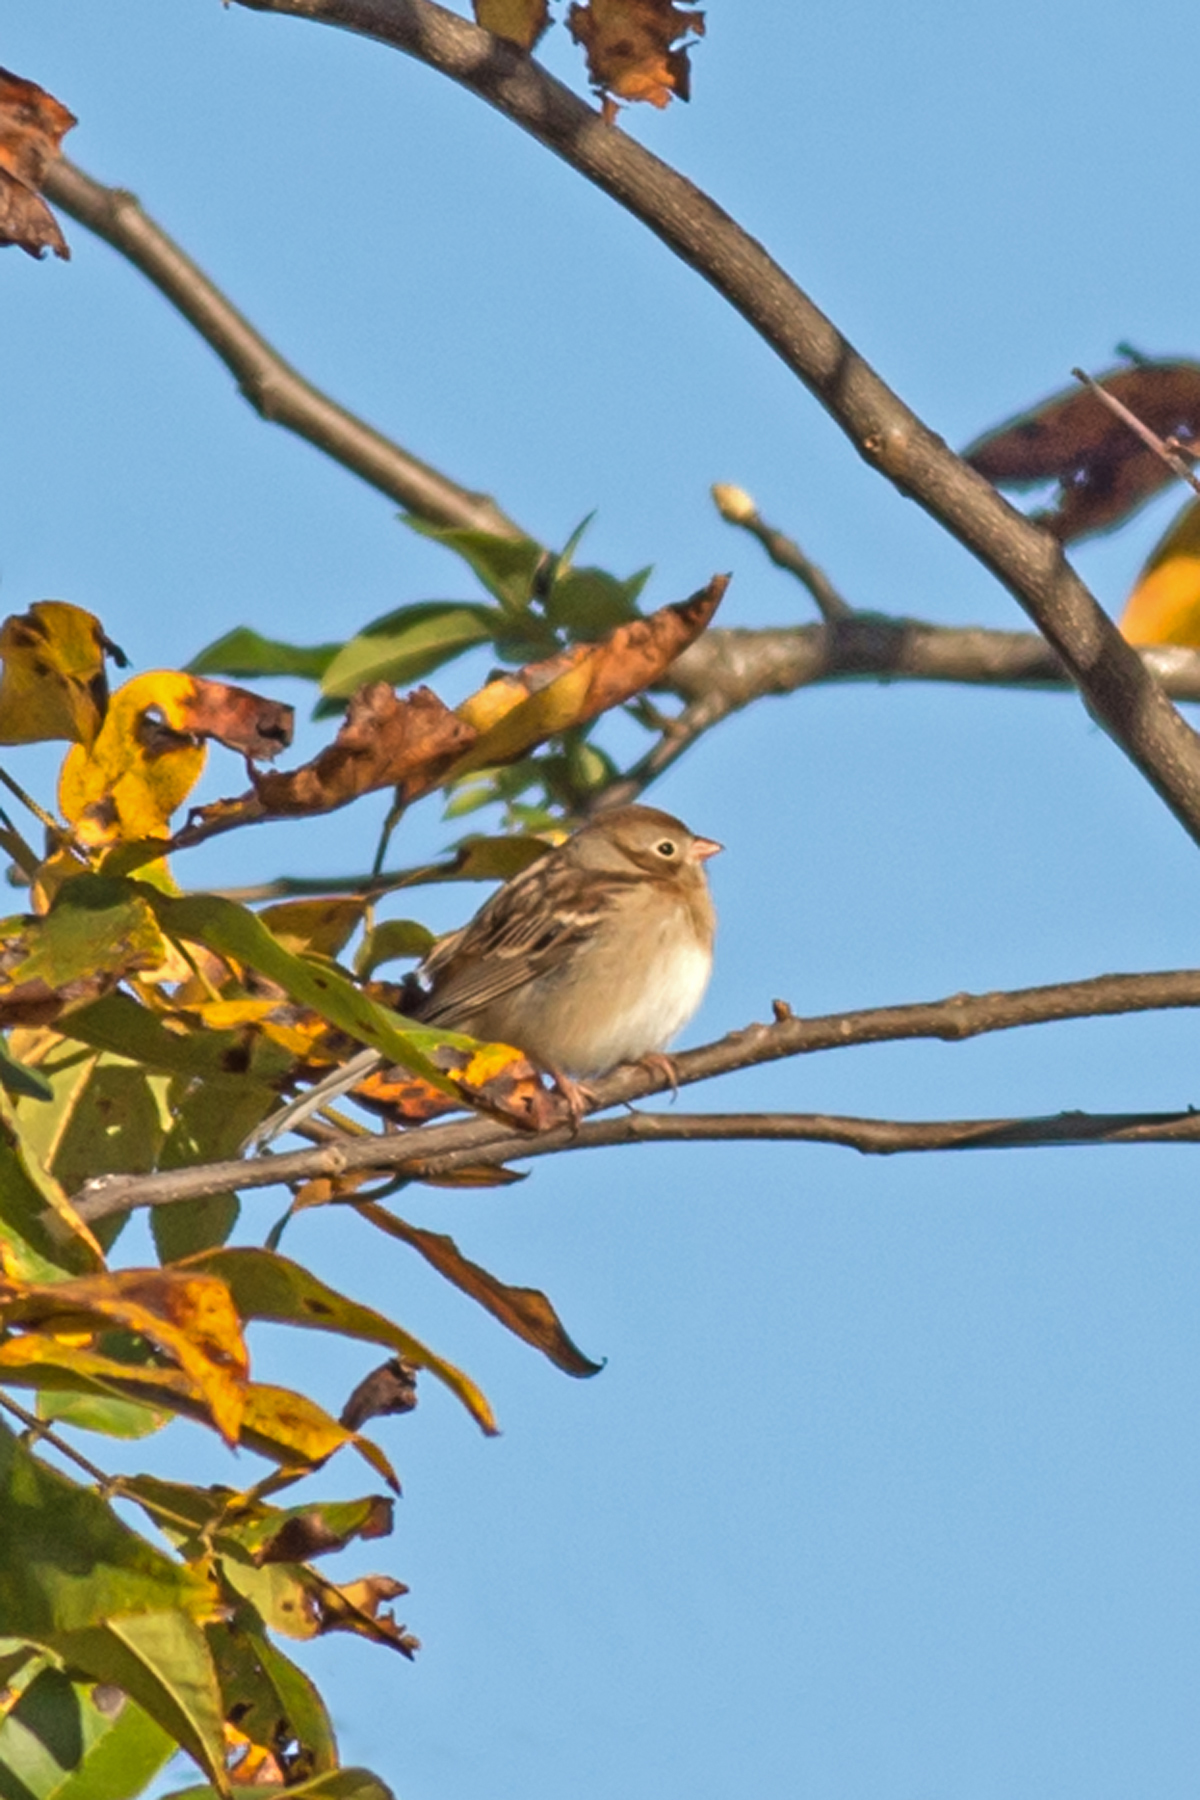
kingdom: Animalia
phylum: Chordata
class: Aves
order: Passeriformes
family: Passerellidae
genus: Spizella
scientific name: Spizella pusilla
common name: Field sparrow
